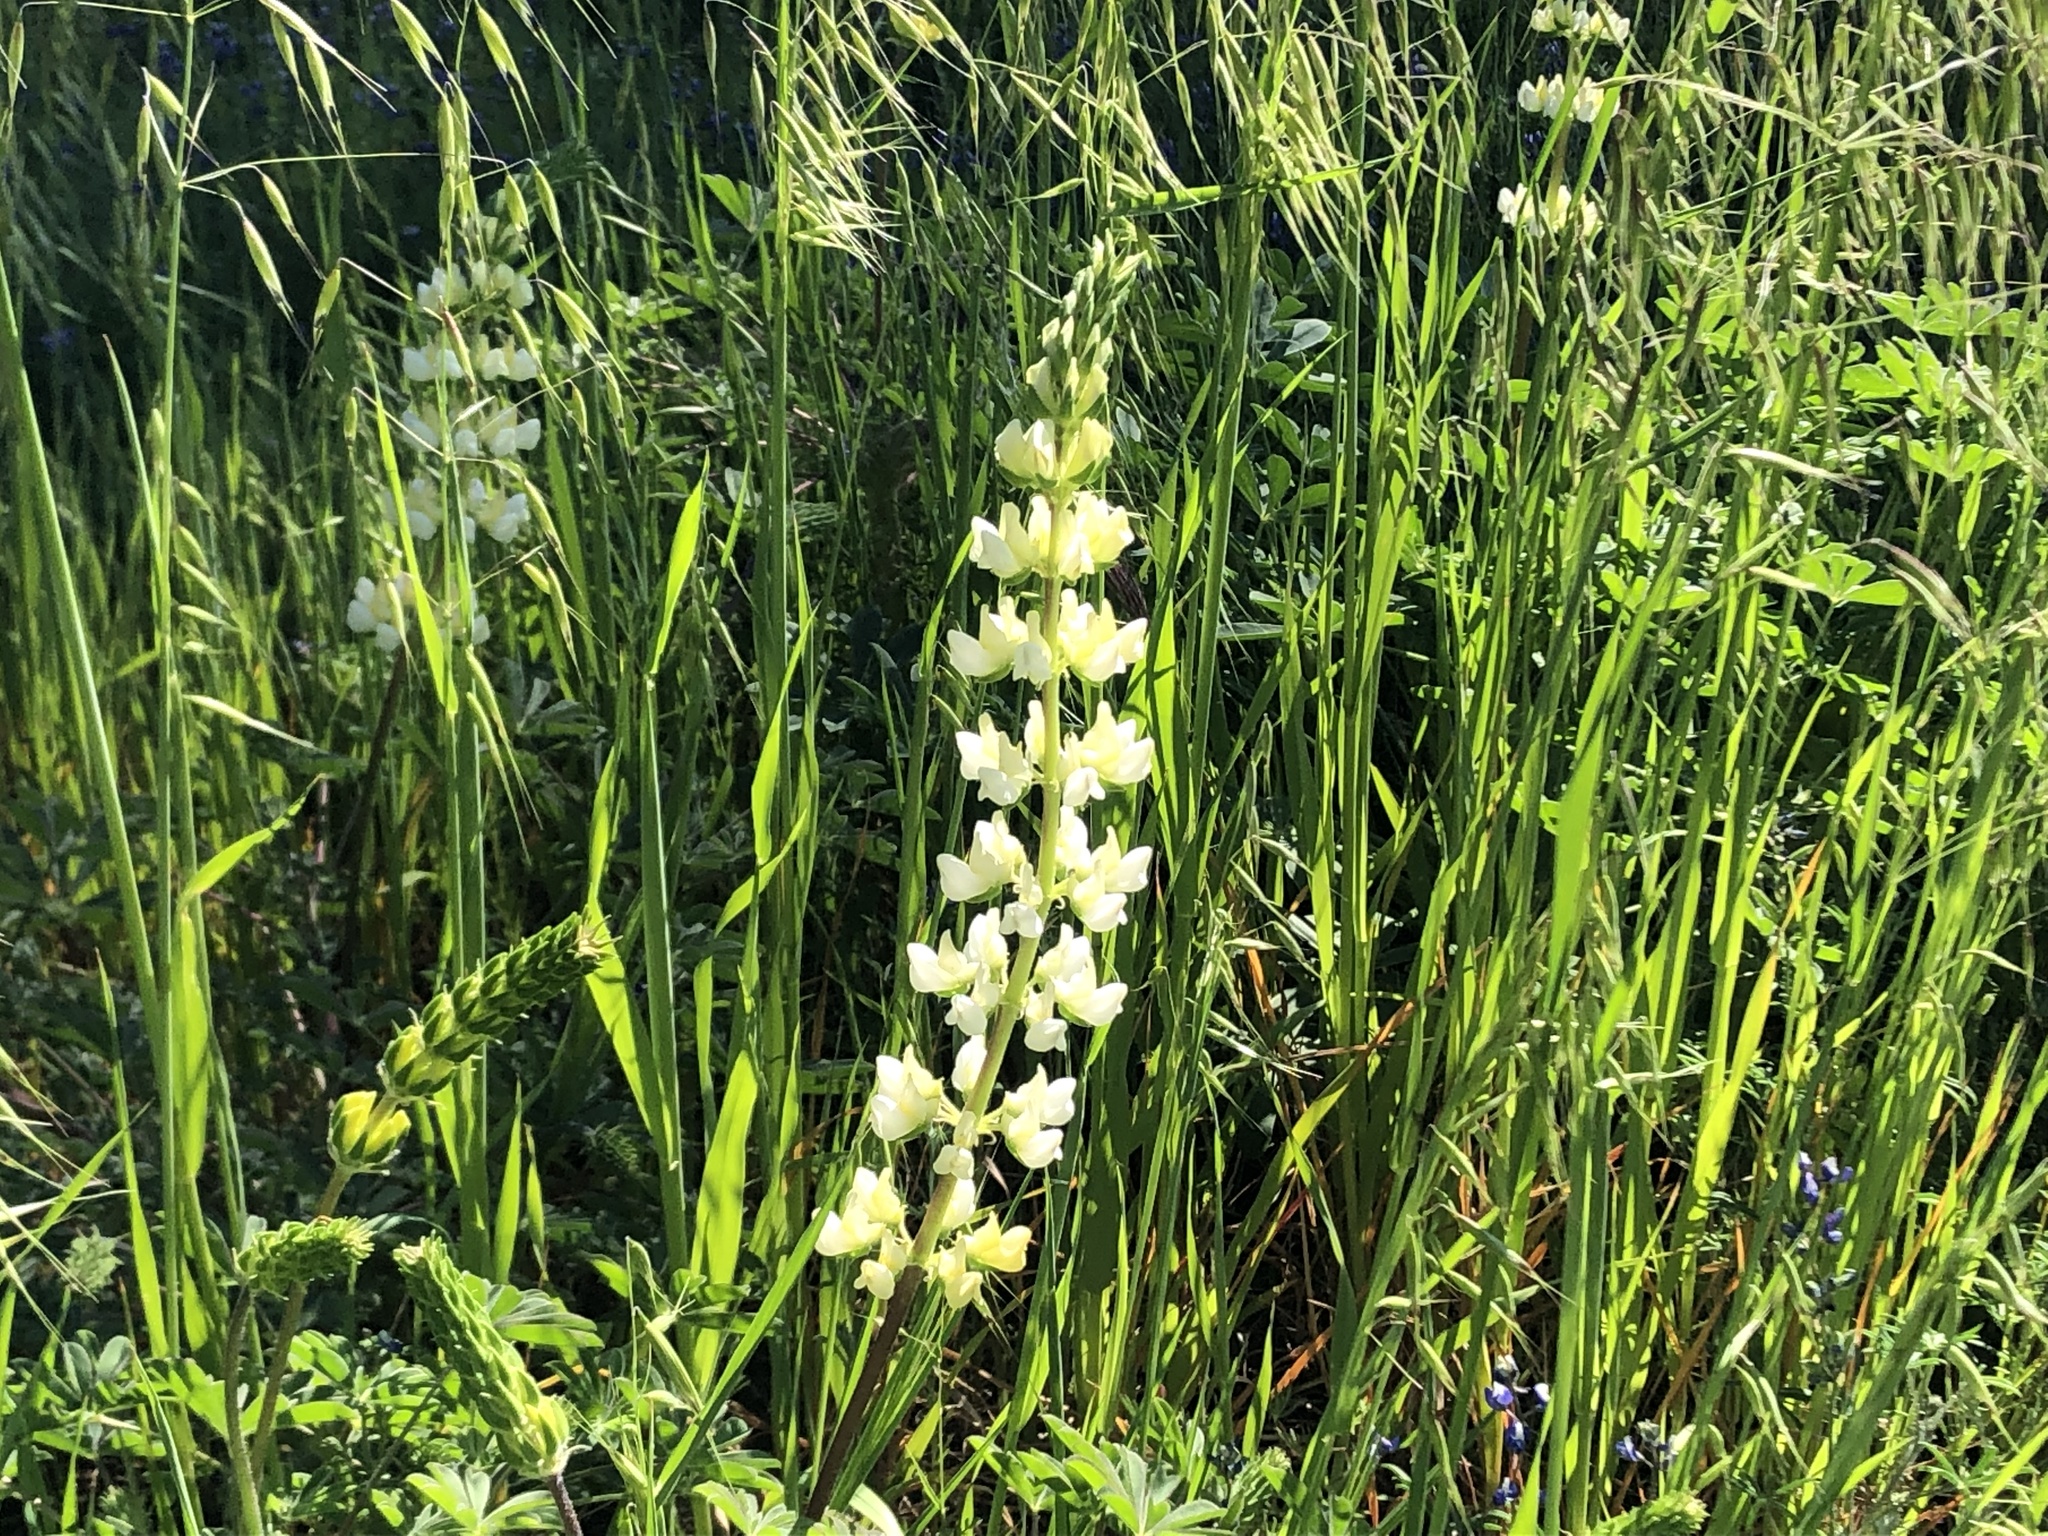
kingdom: Plantae
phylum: Tracheophyta
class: Magnoliopsida
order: Fabales
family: Fabaceae
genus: Lupinus
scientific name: Lupinus microcarpus
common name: Chick lupine
